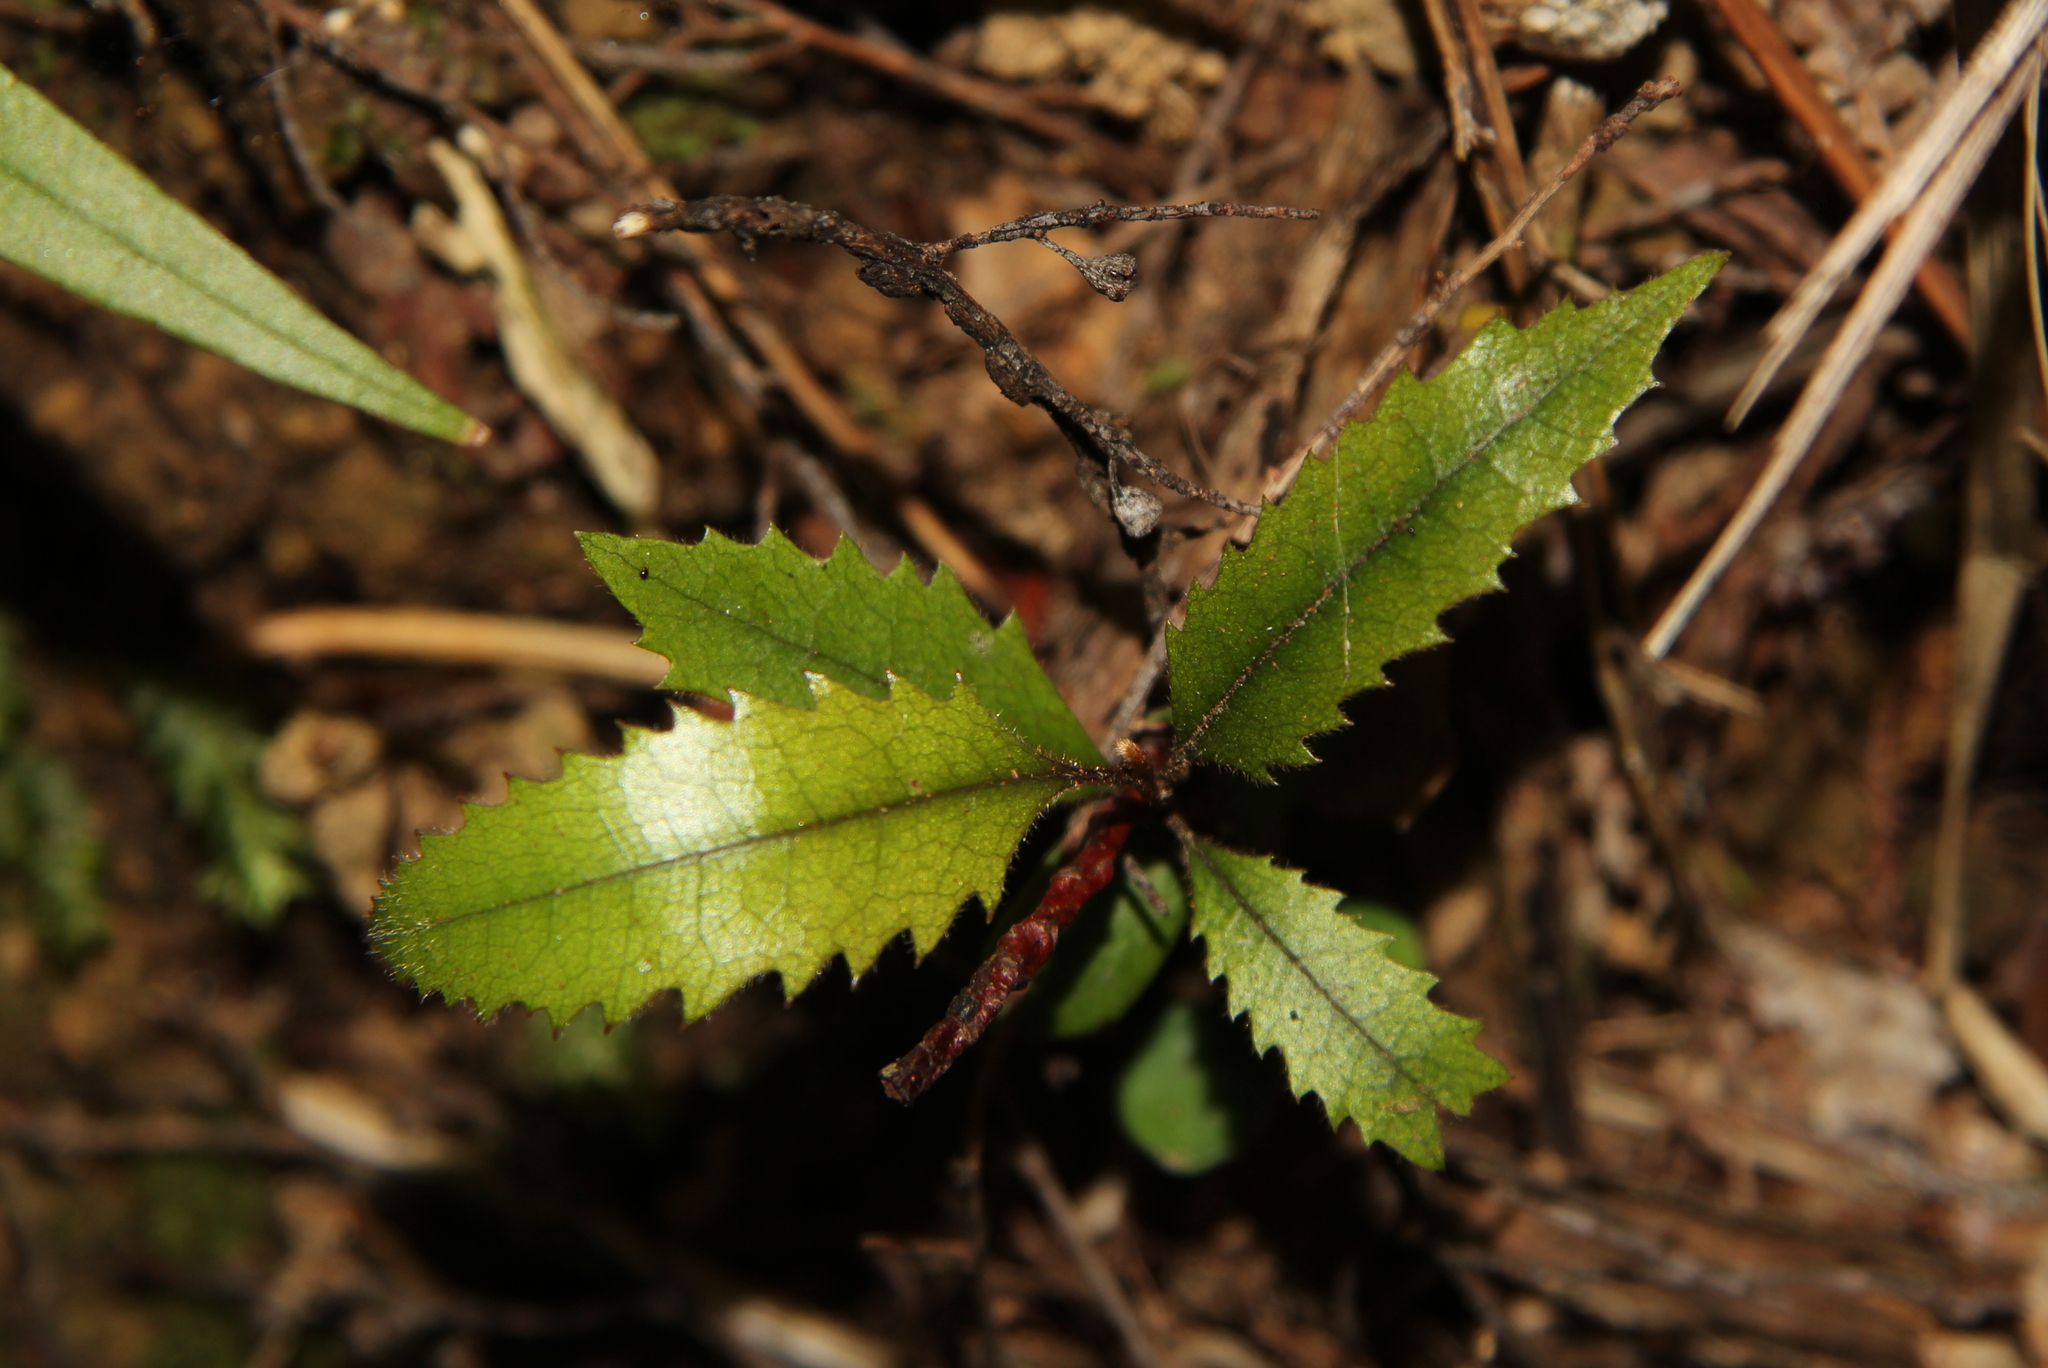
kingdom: Plantae
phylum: Tracheophyta
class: Magnoliopsida
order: Proteales
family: Proteaceae
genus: Knightia
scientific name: Knightia excelsa
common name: New zealand-honeysuckle
